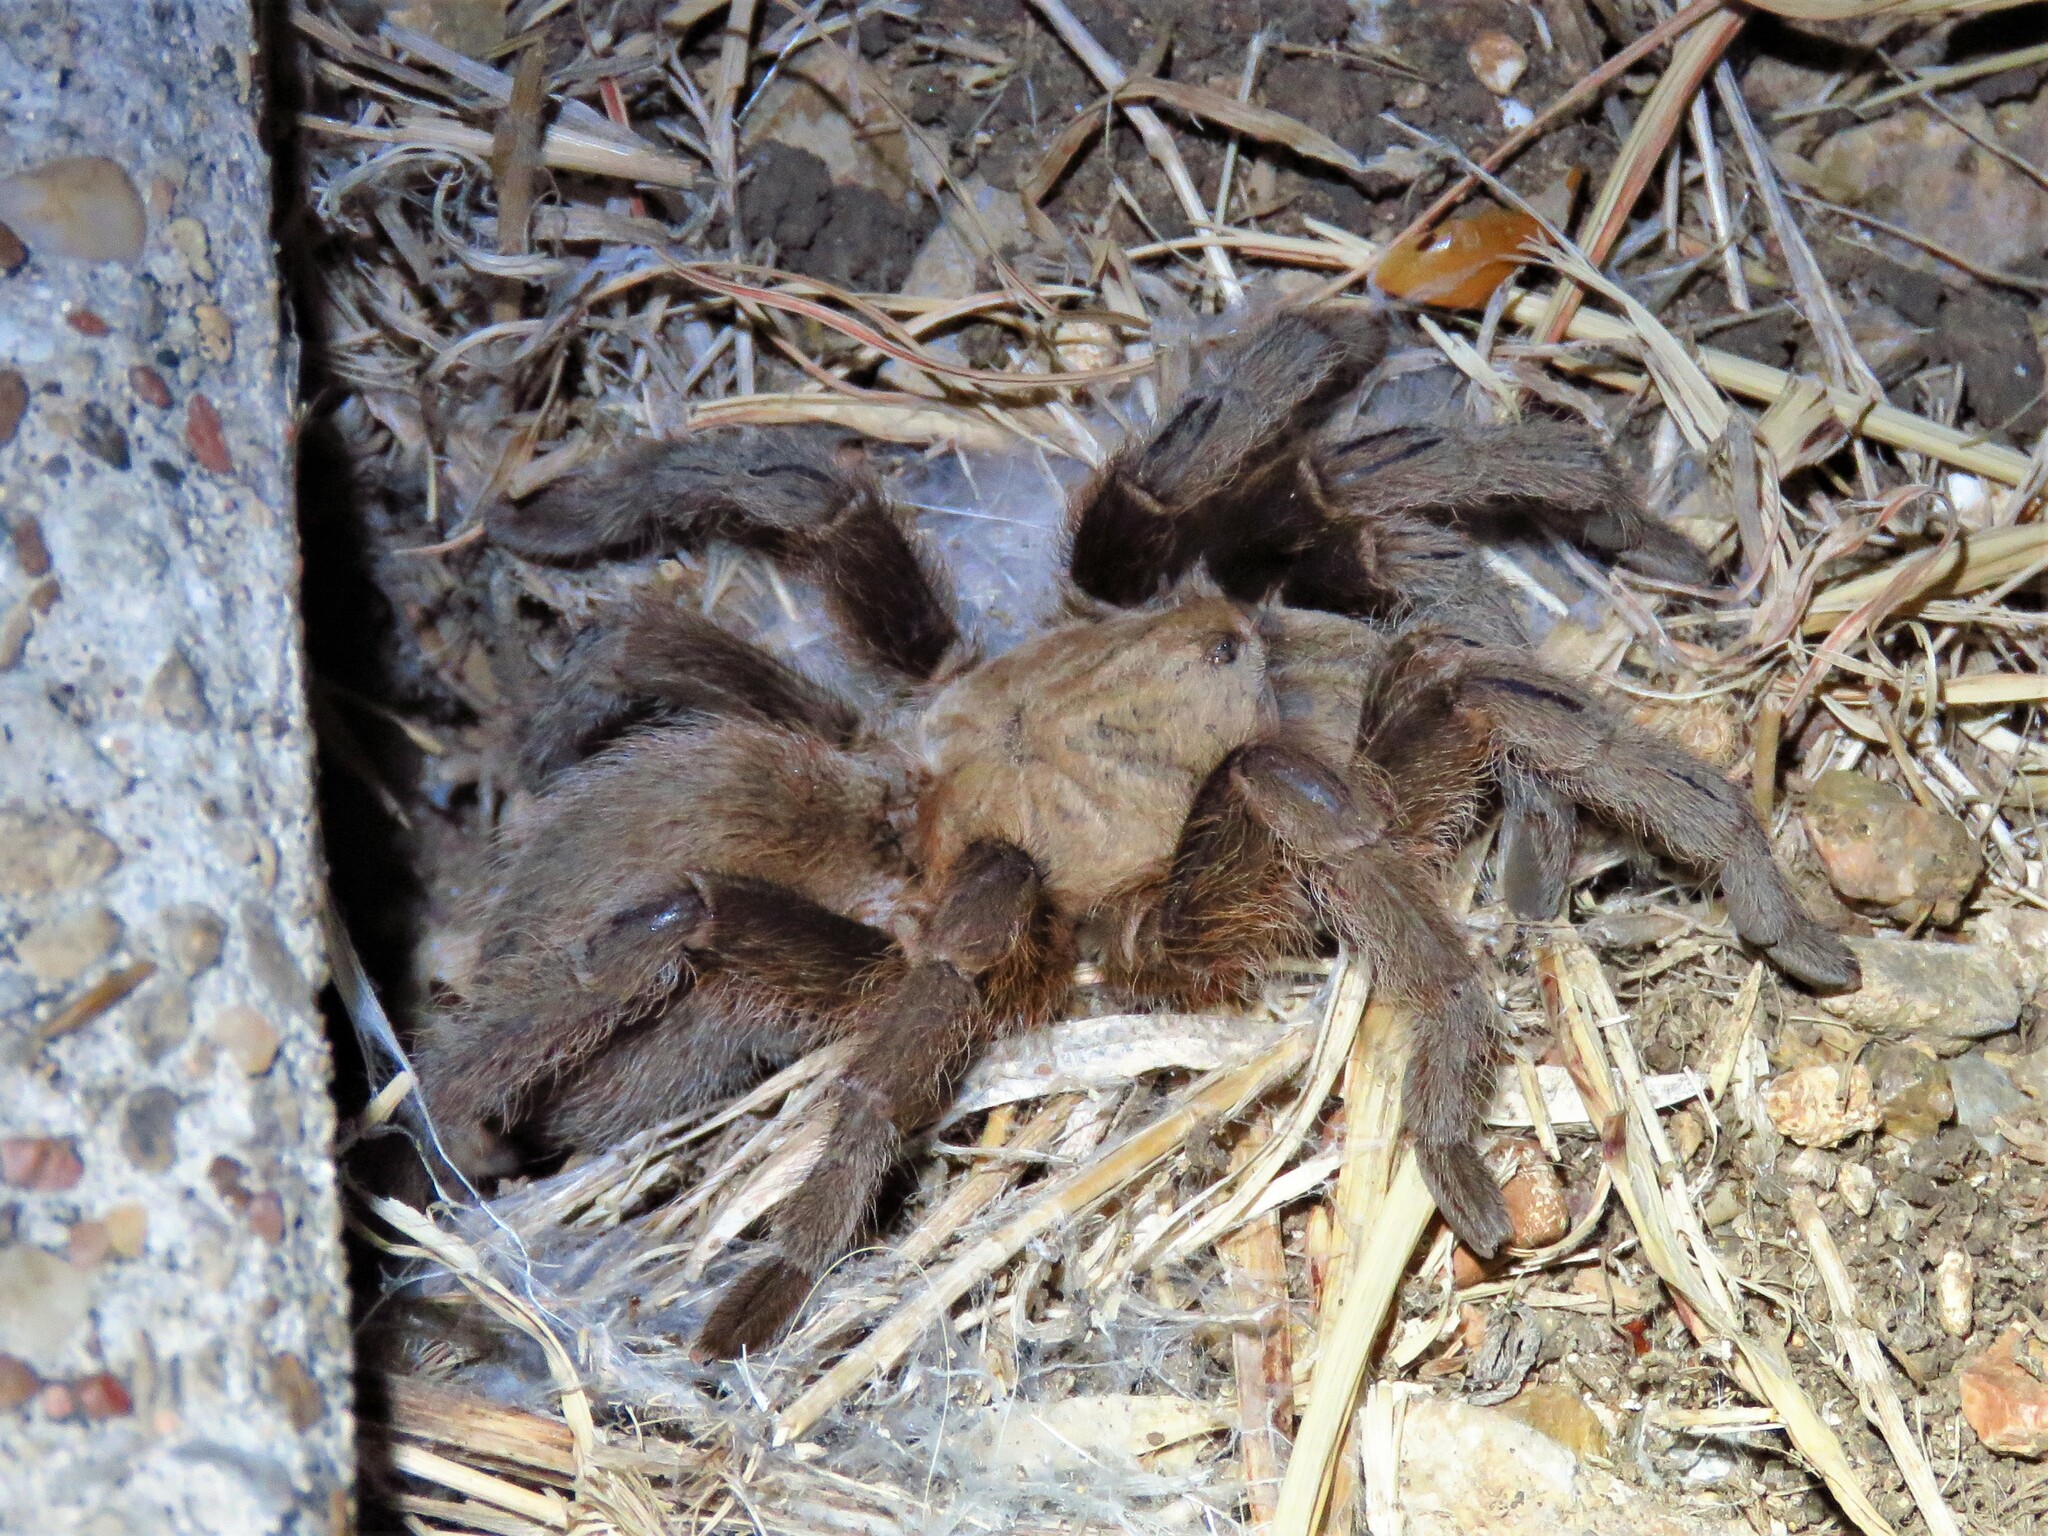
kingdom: Animalia
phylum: Arthropoda
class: Arachnida
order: Araneae
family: Theraphosidae
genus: Aphonopelma
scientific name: Aphonopelma hentzi
